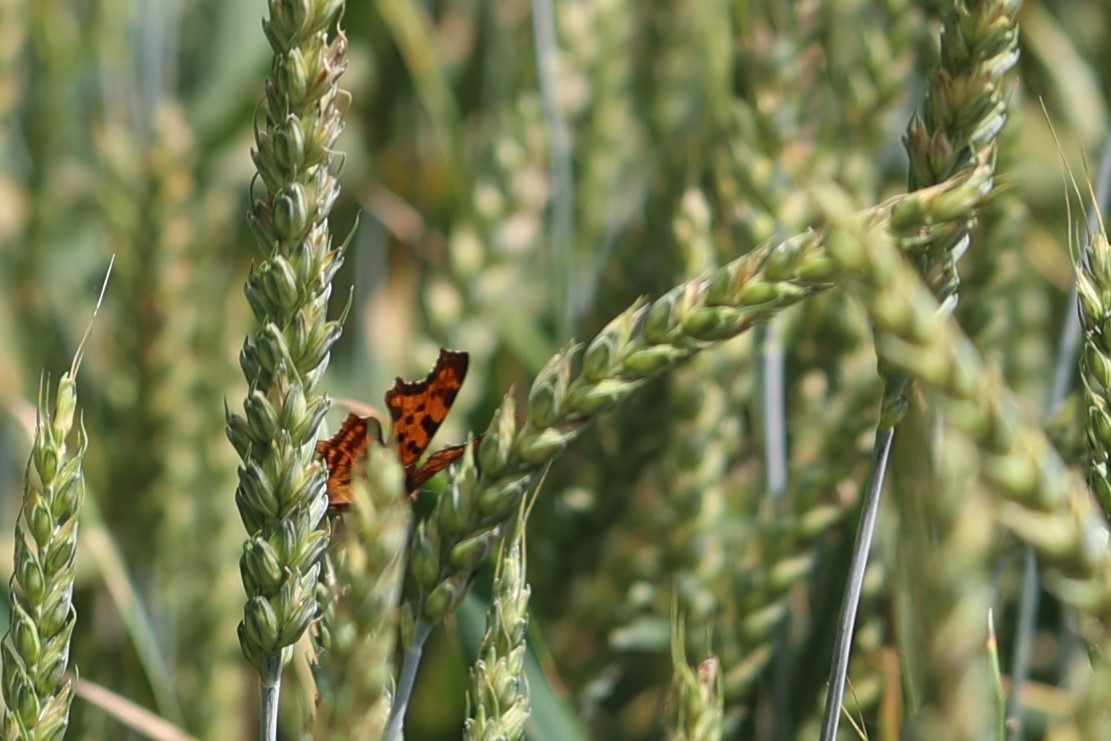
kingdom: Animalia
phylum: Arthropoda
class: Insecta
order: Lepidoptera
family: Nymphalidae
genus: Polygonia
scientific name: Polygonia c-album
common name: Comma
